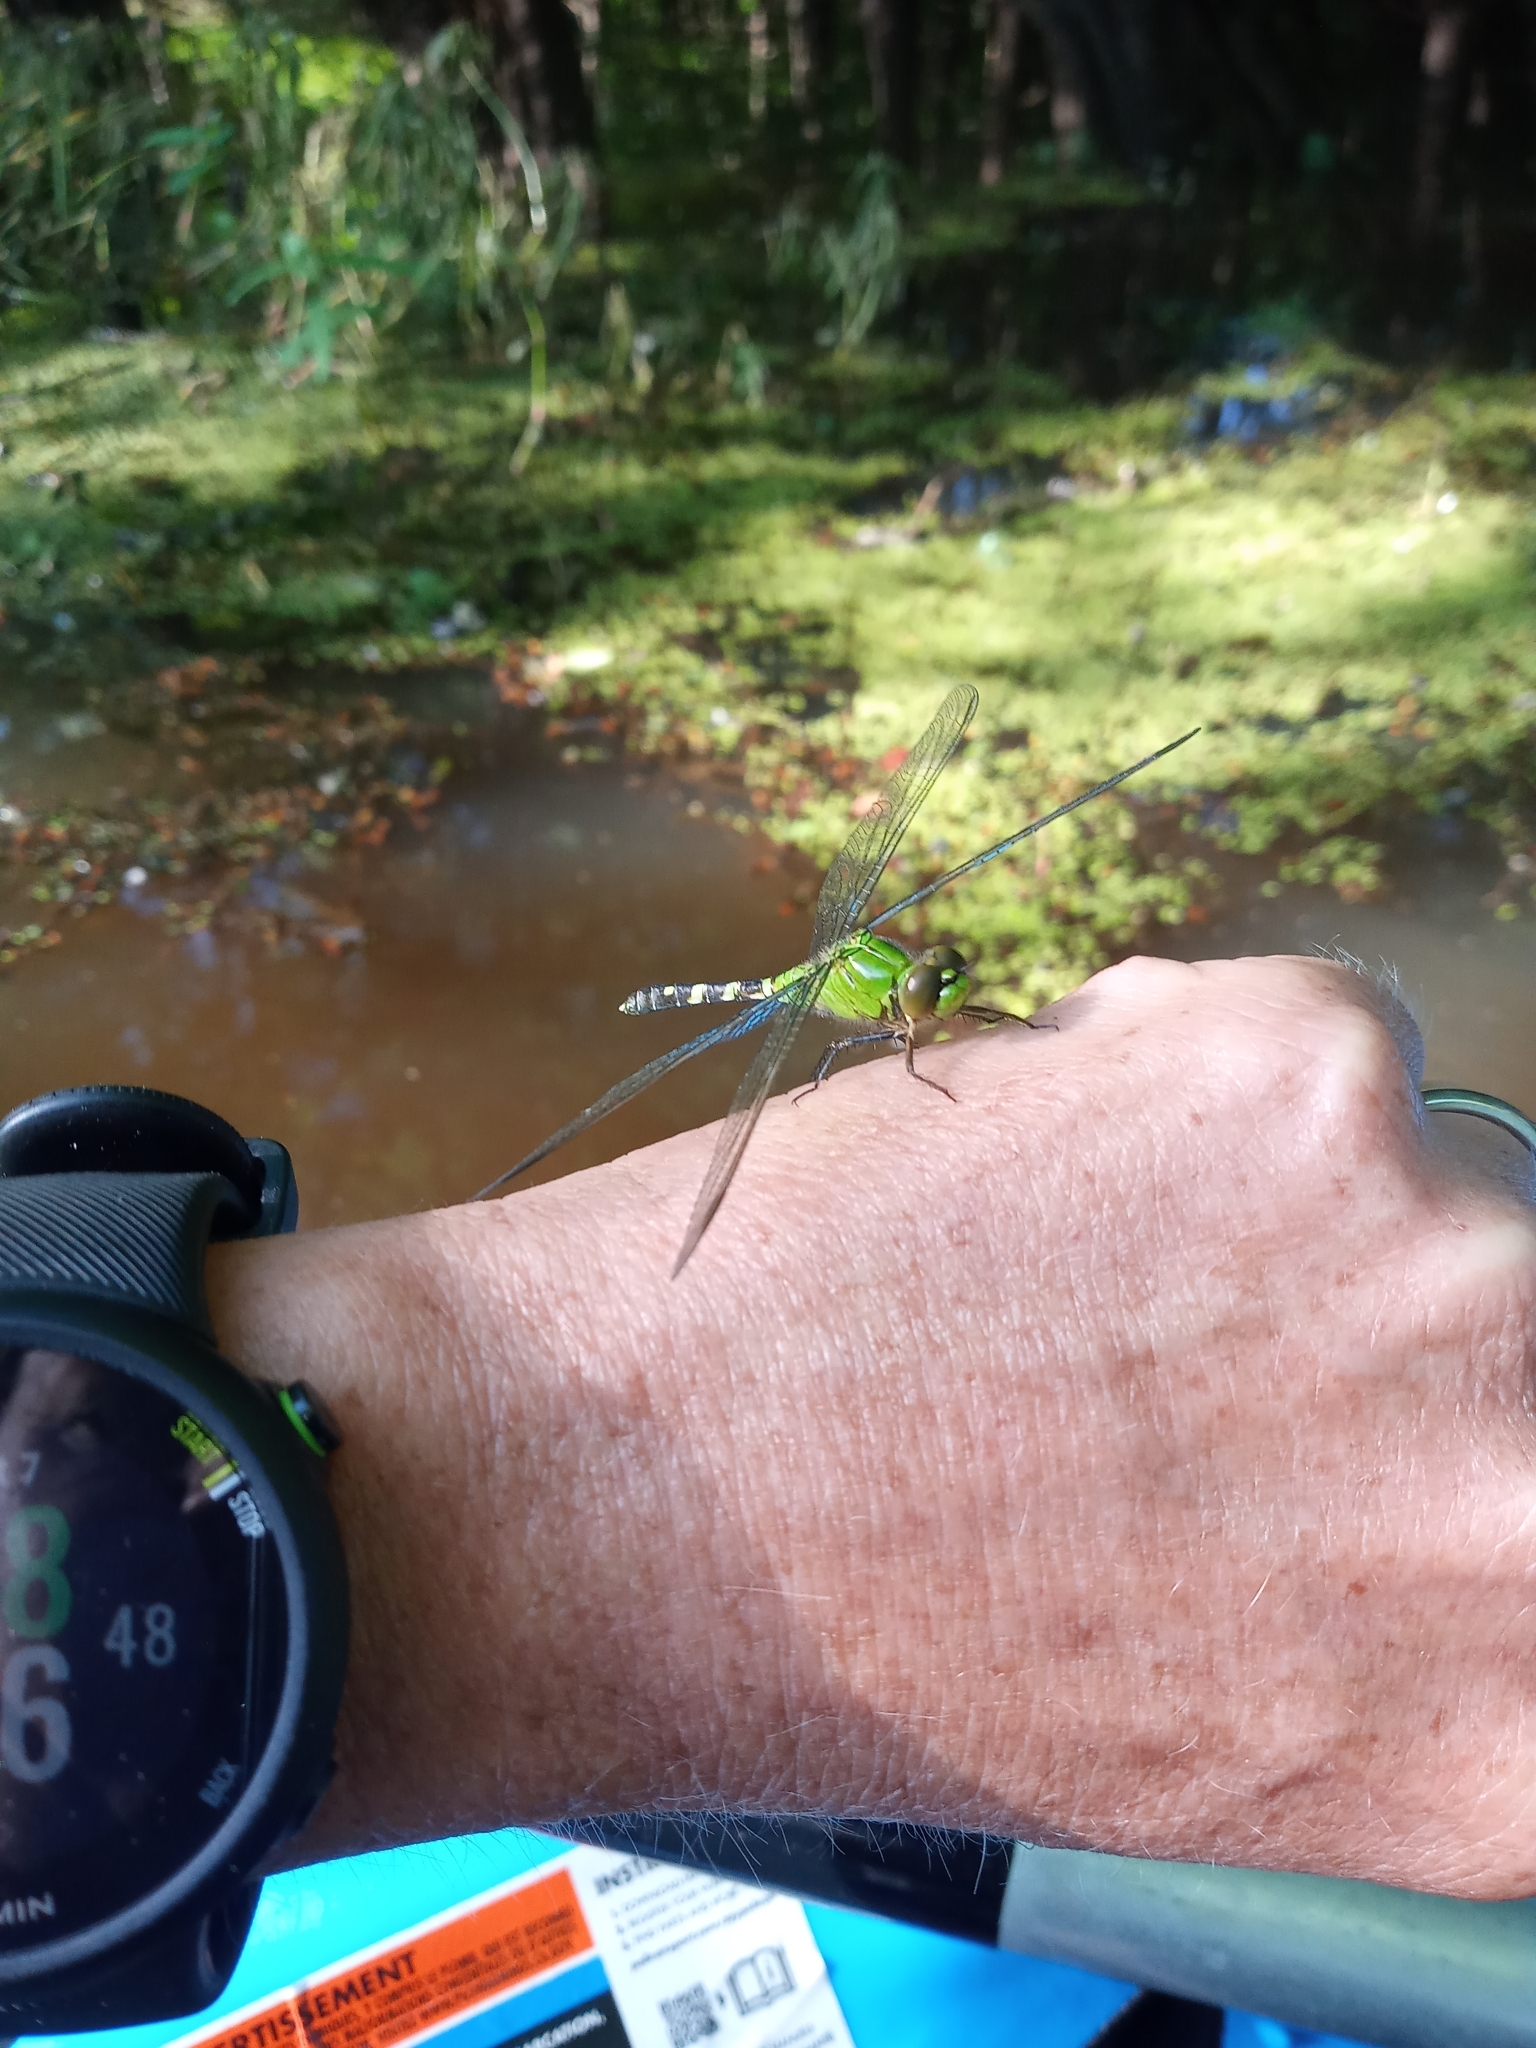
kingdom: Animalia
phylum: Arthropoda
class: Insecta
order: Odonata
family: Libellulidae
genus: Erythemis
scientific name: Erythemis simplicicollis
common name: Eastern pondhawk
